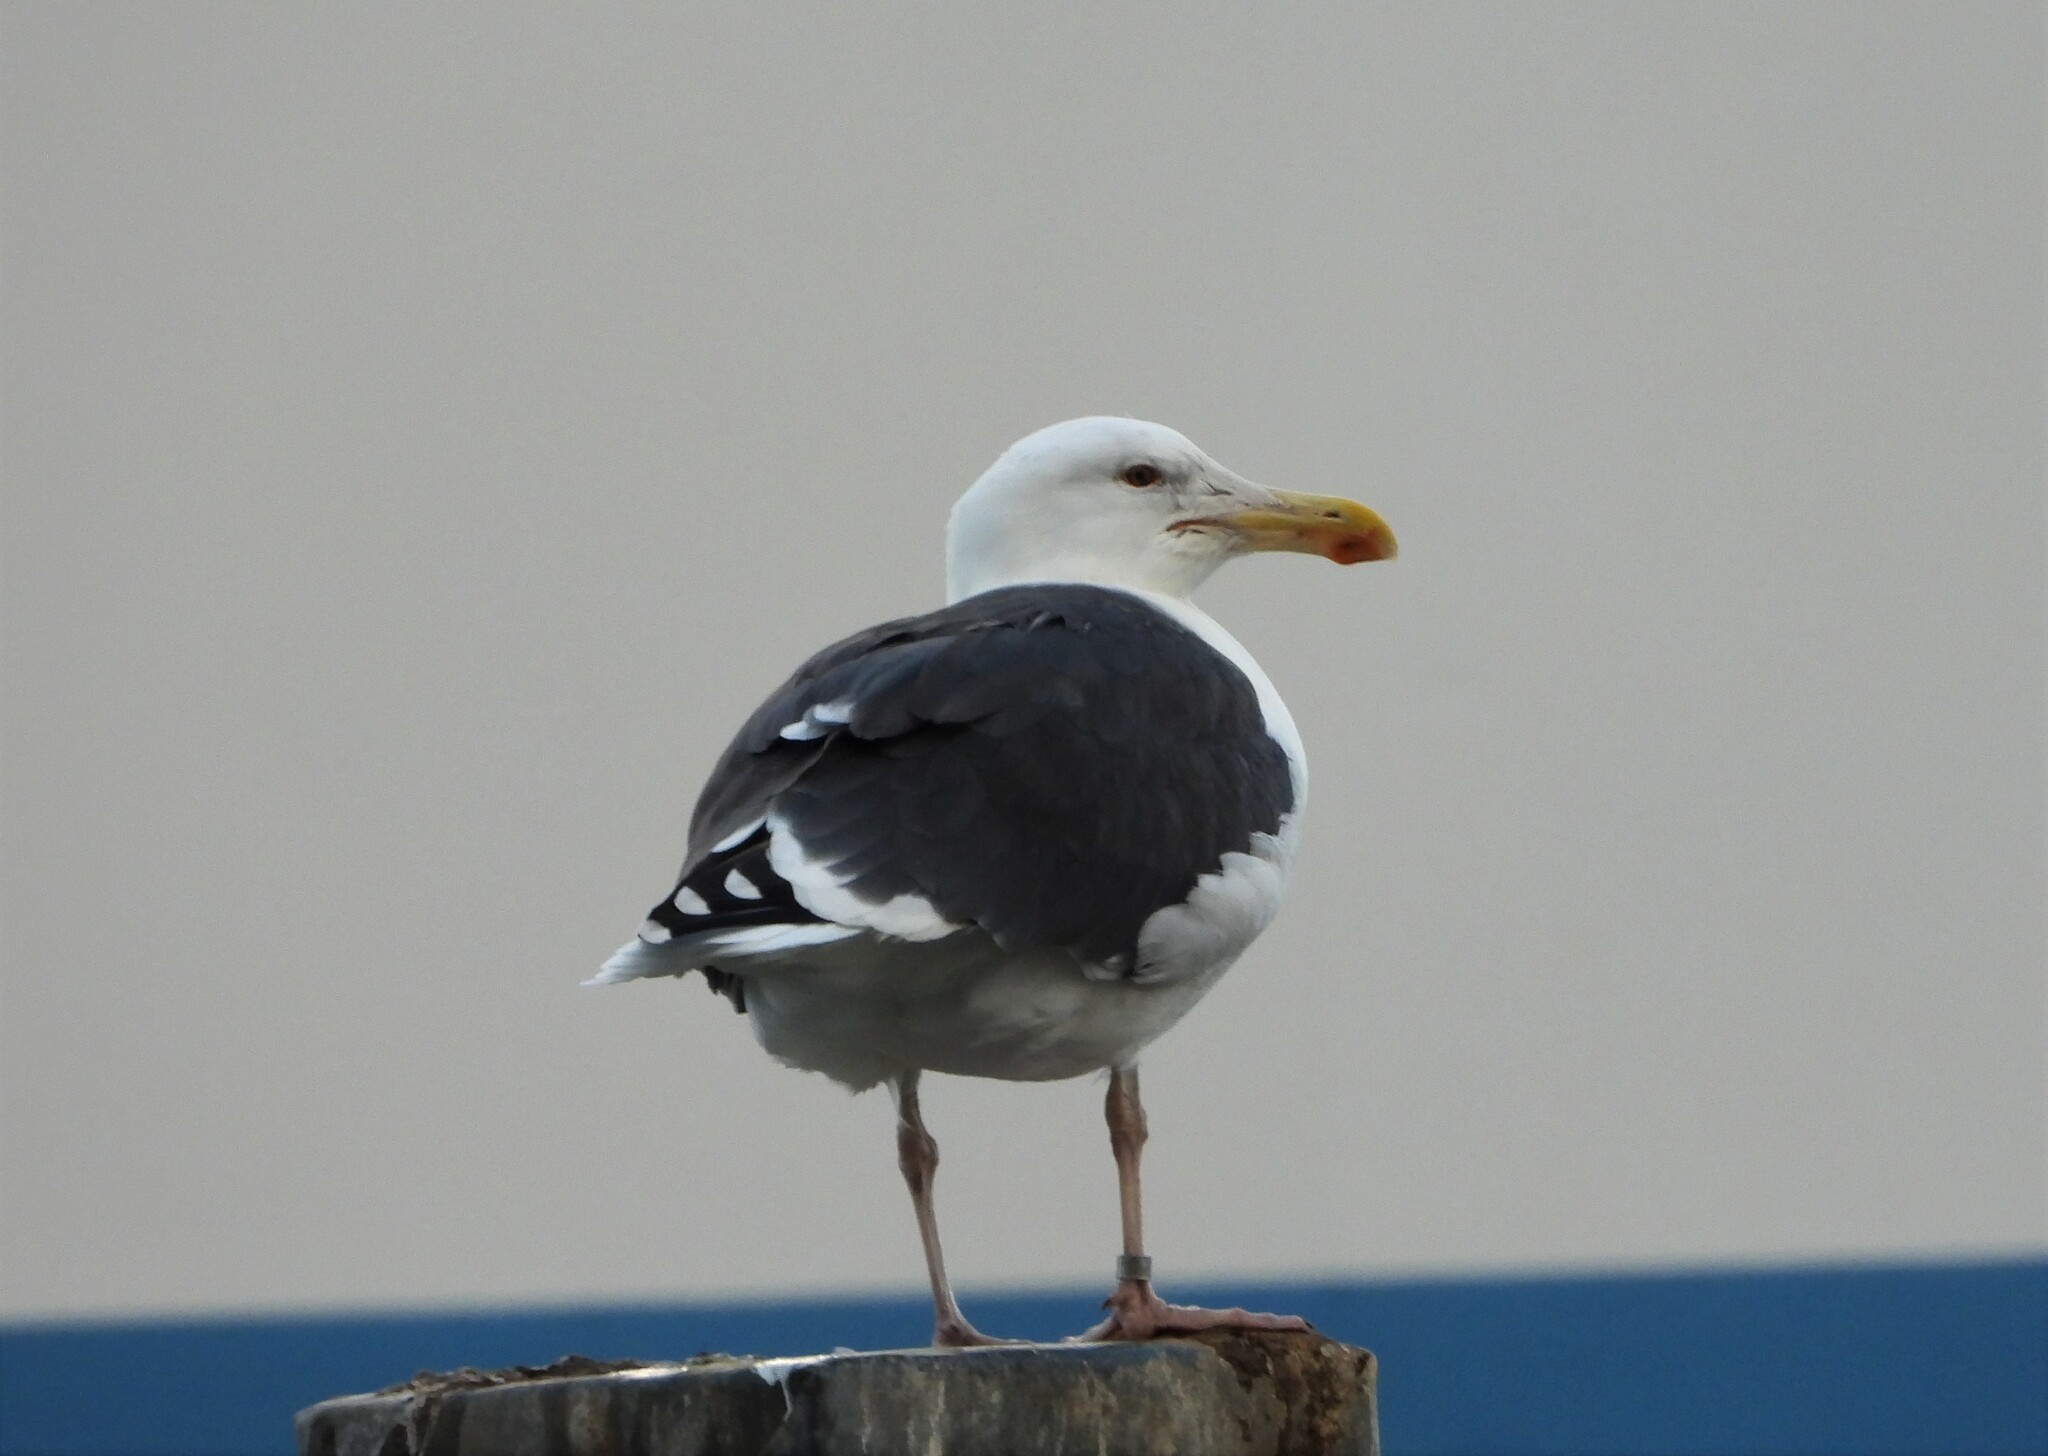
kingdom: Animalia
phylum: Chordata
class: Aves
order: Charadriiformes
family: Laridae
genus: Larus
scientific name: Larus marinus
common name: Great black-backed gull
